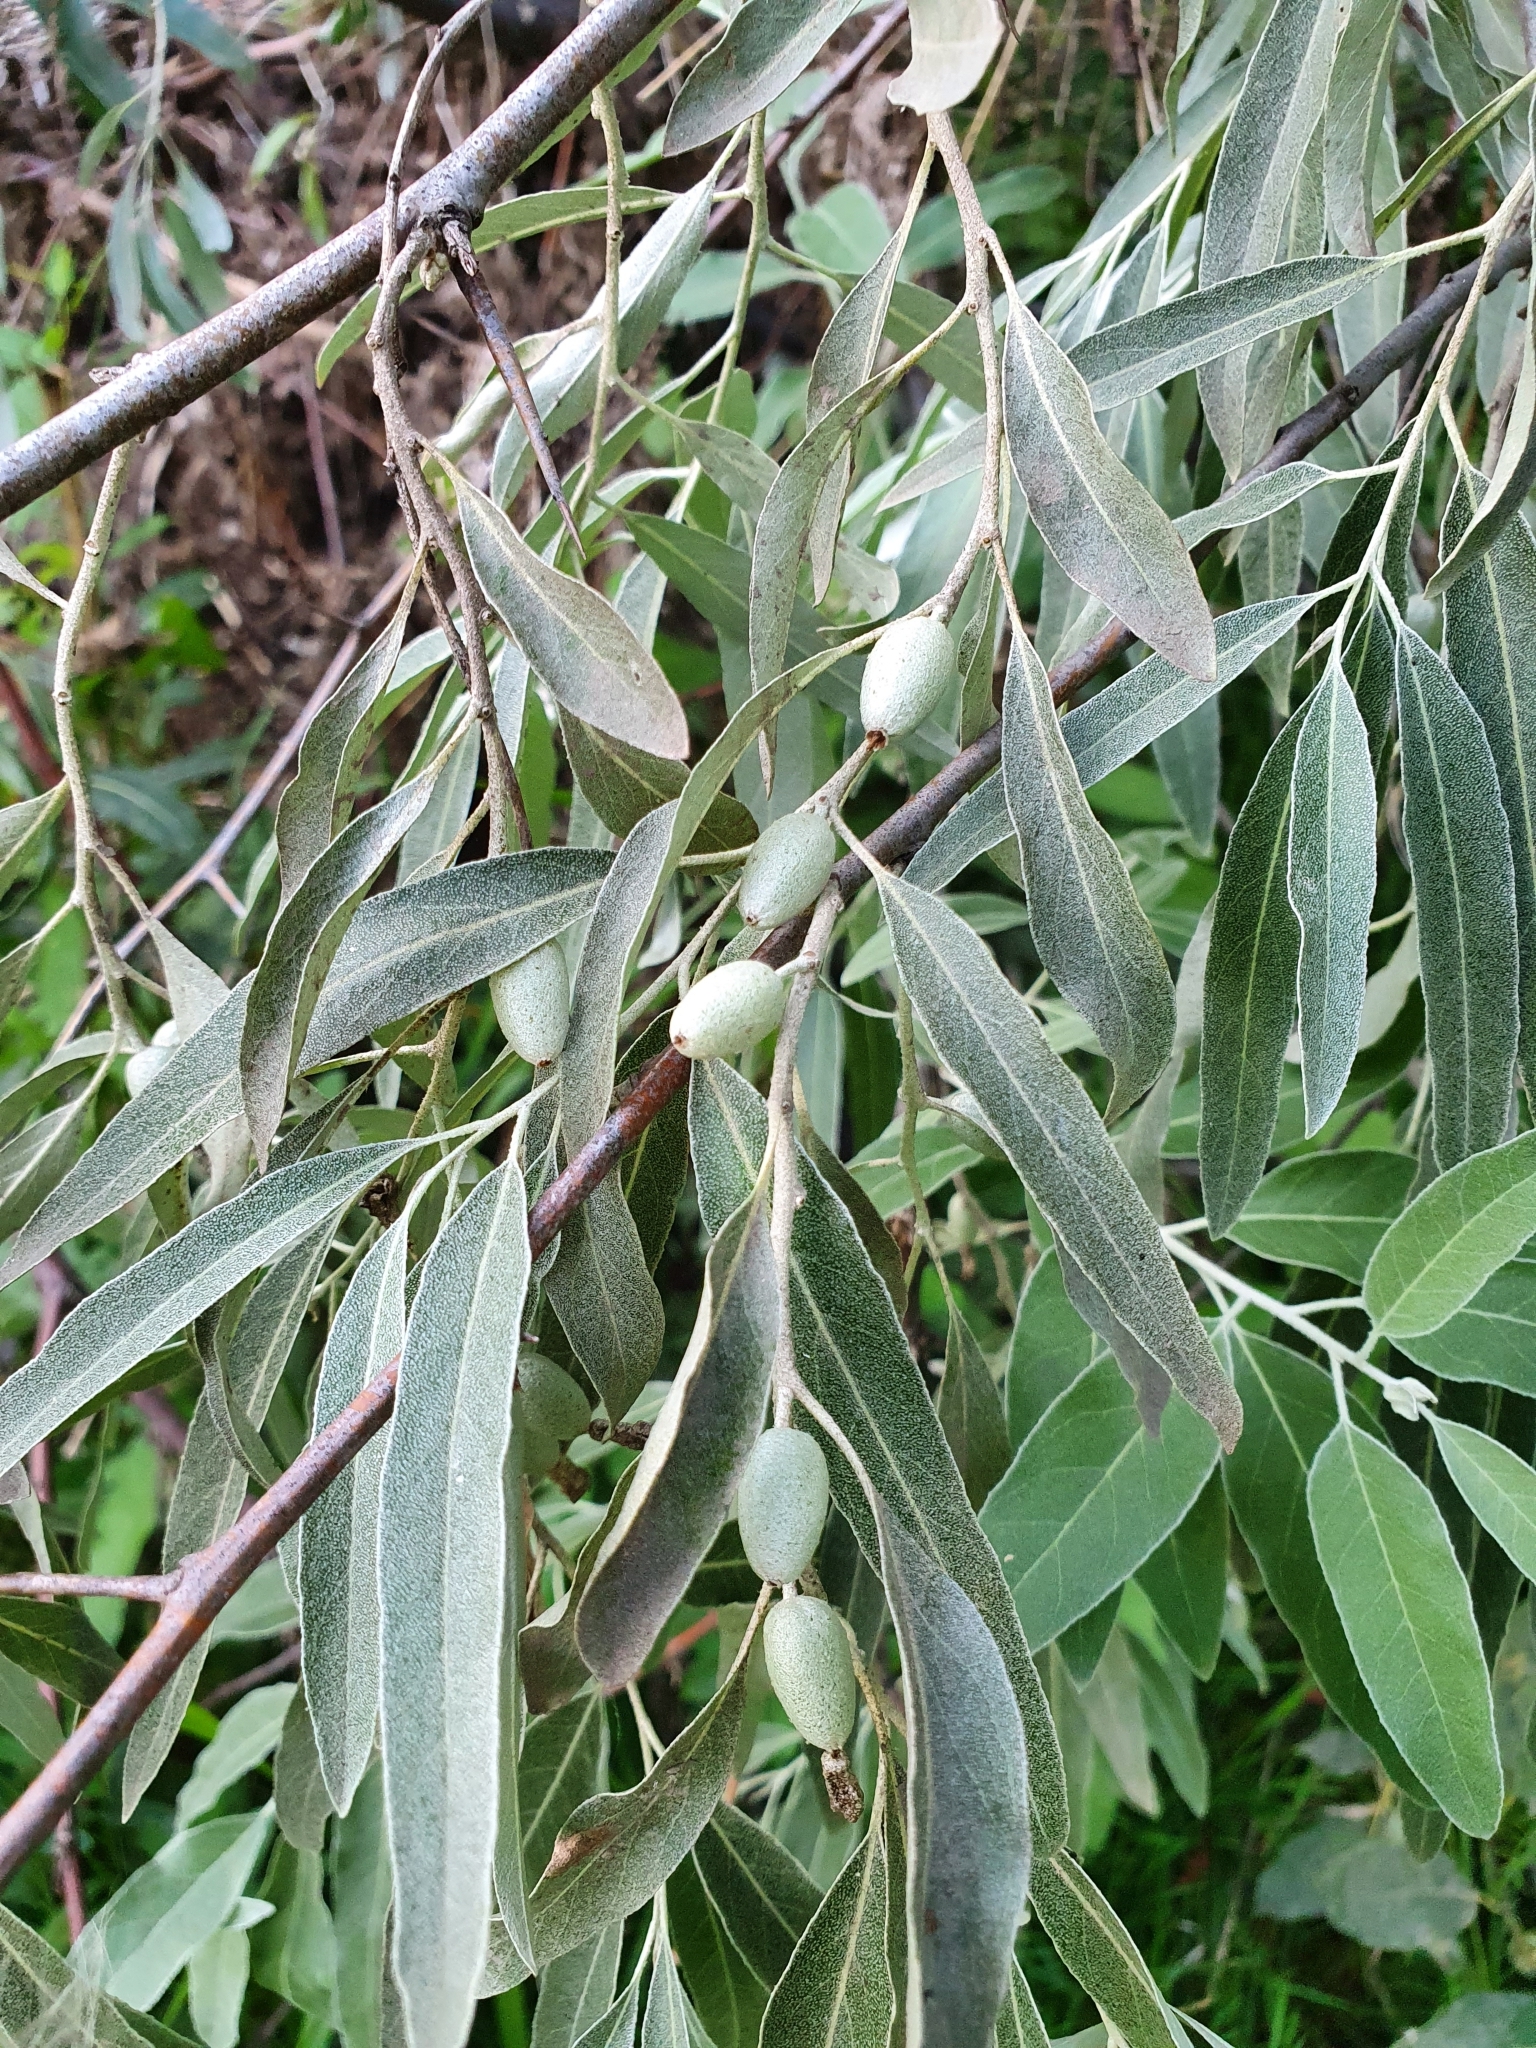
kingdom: Plantae
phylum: Tracheophyta
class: Magnoliopsida
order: Rosales
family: Elaeagnaceae
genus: Elaeagnus
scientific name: Elaeagnus angustifolia
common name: Russian olive
